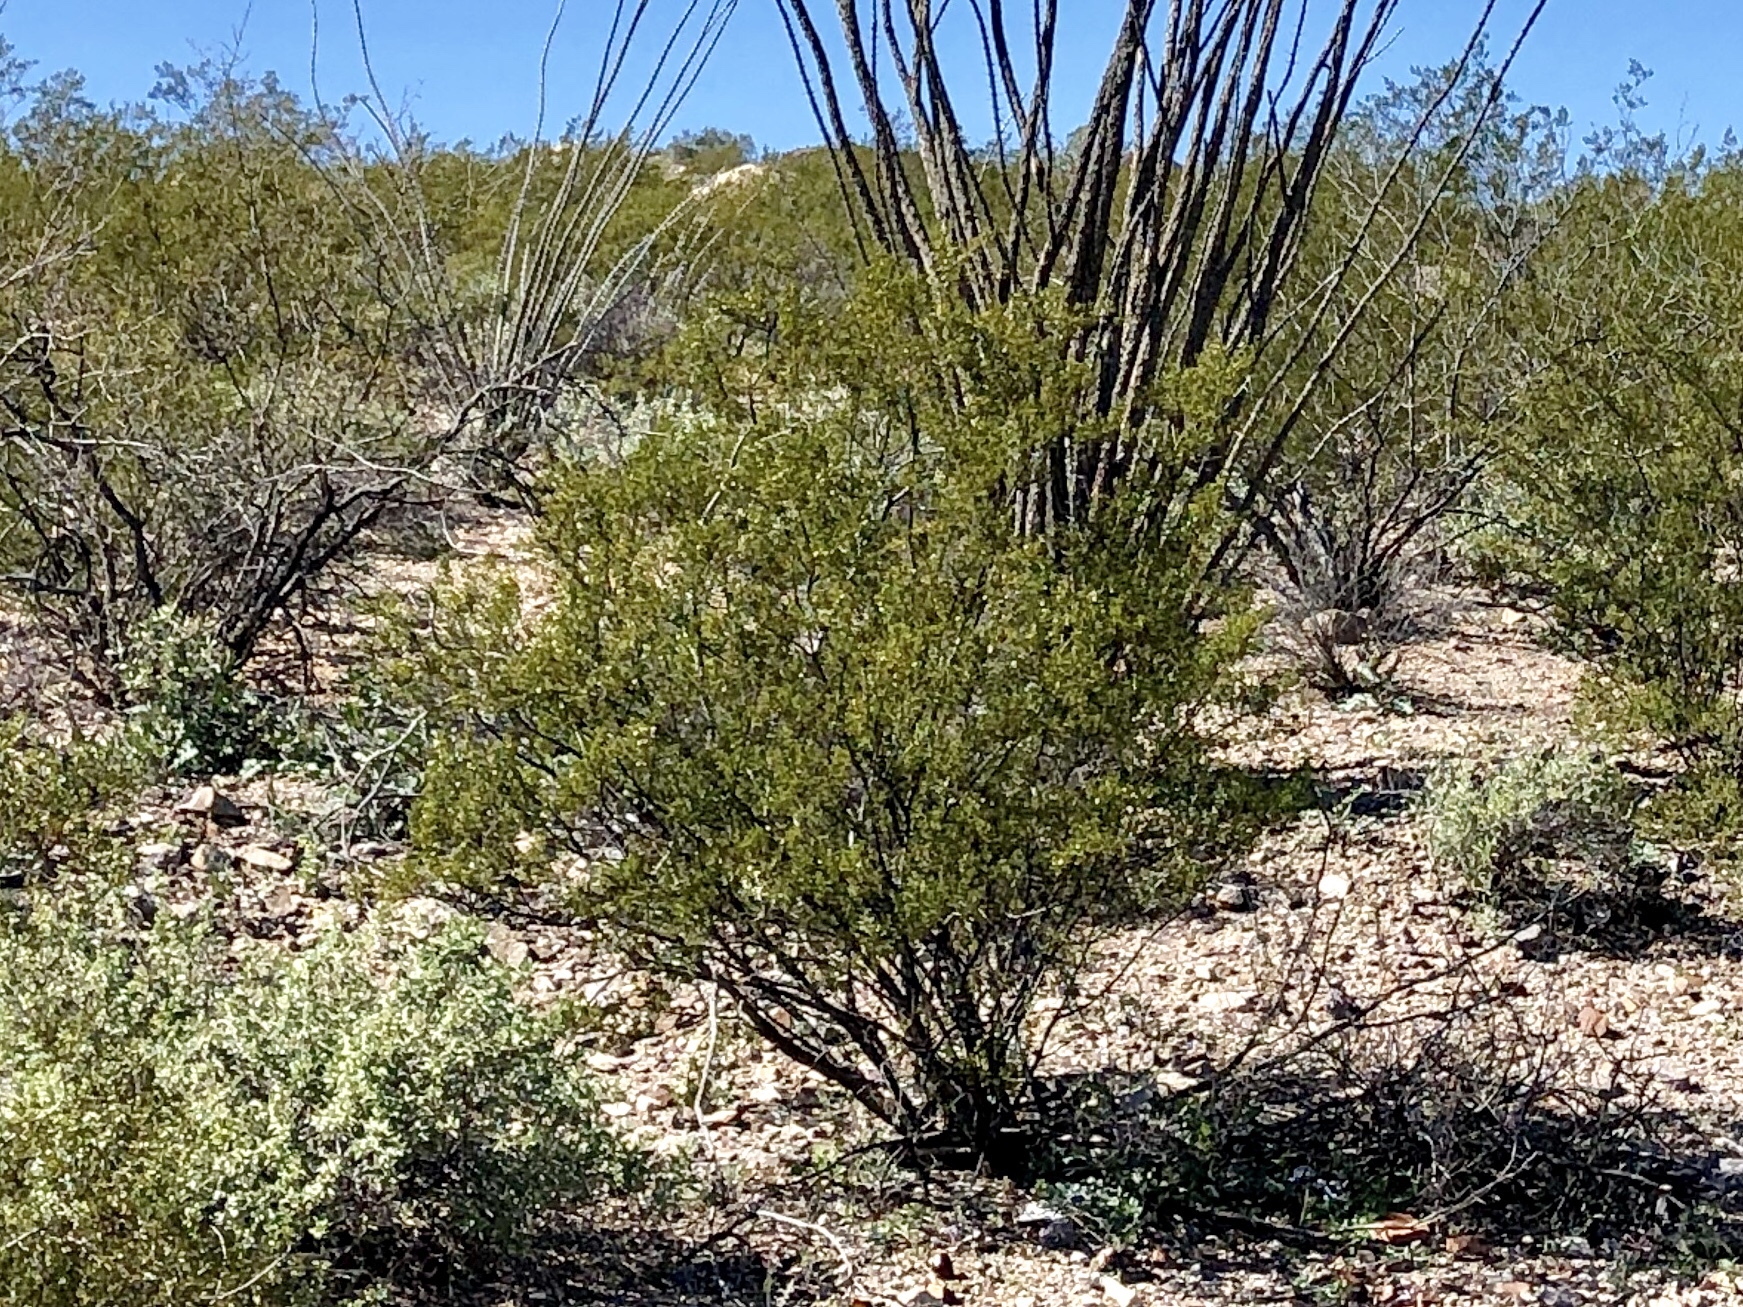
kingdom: Plantae
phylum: Tracheophyta
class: Magnoliopsida
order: Zygophyllales
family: Zygophyllaceae
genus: Larrea
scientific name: Larrea tridentata
